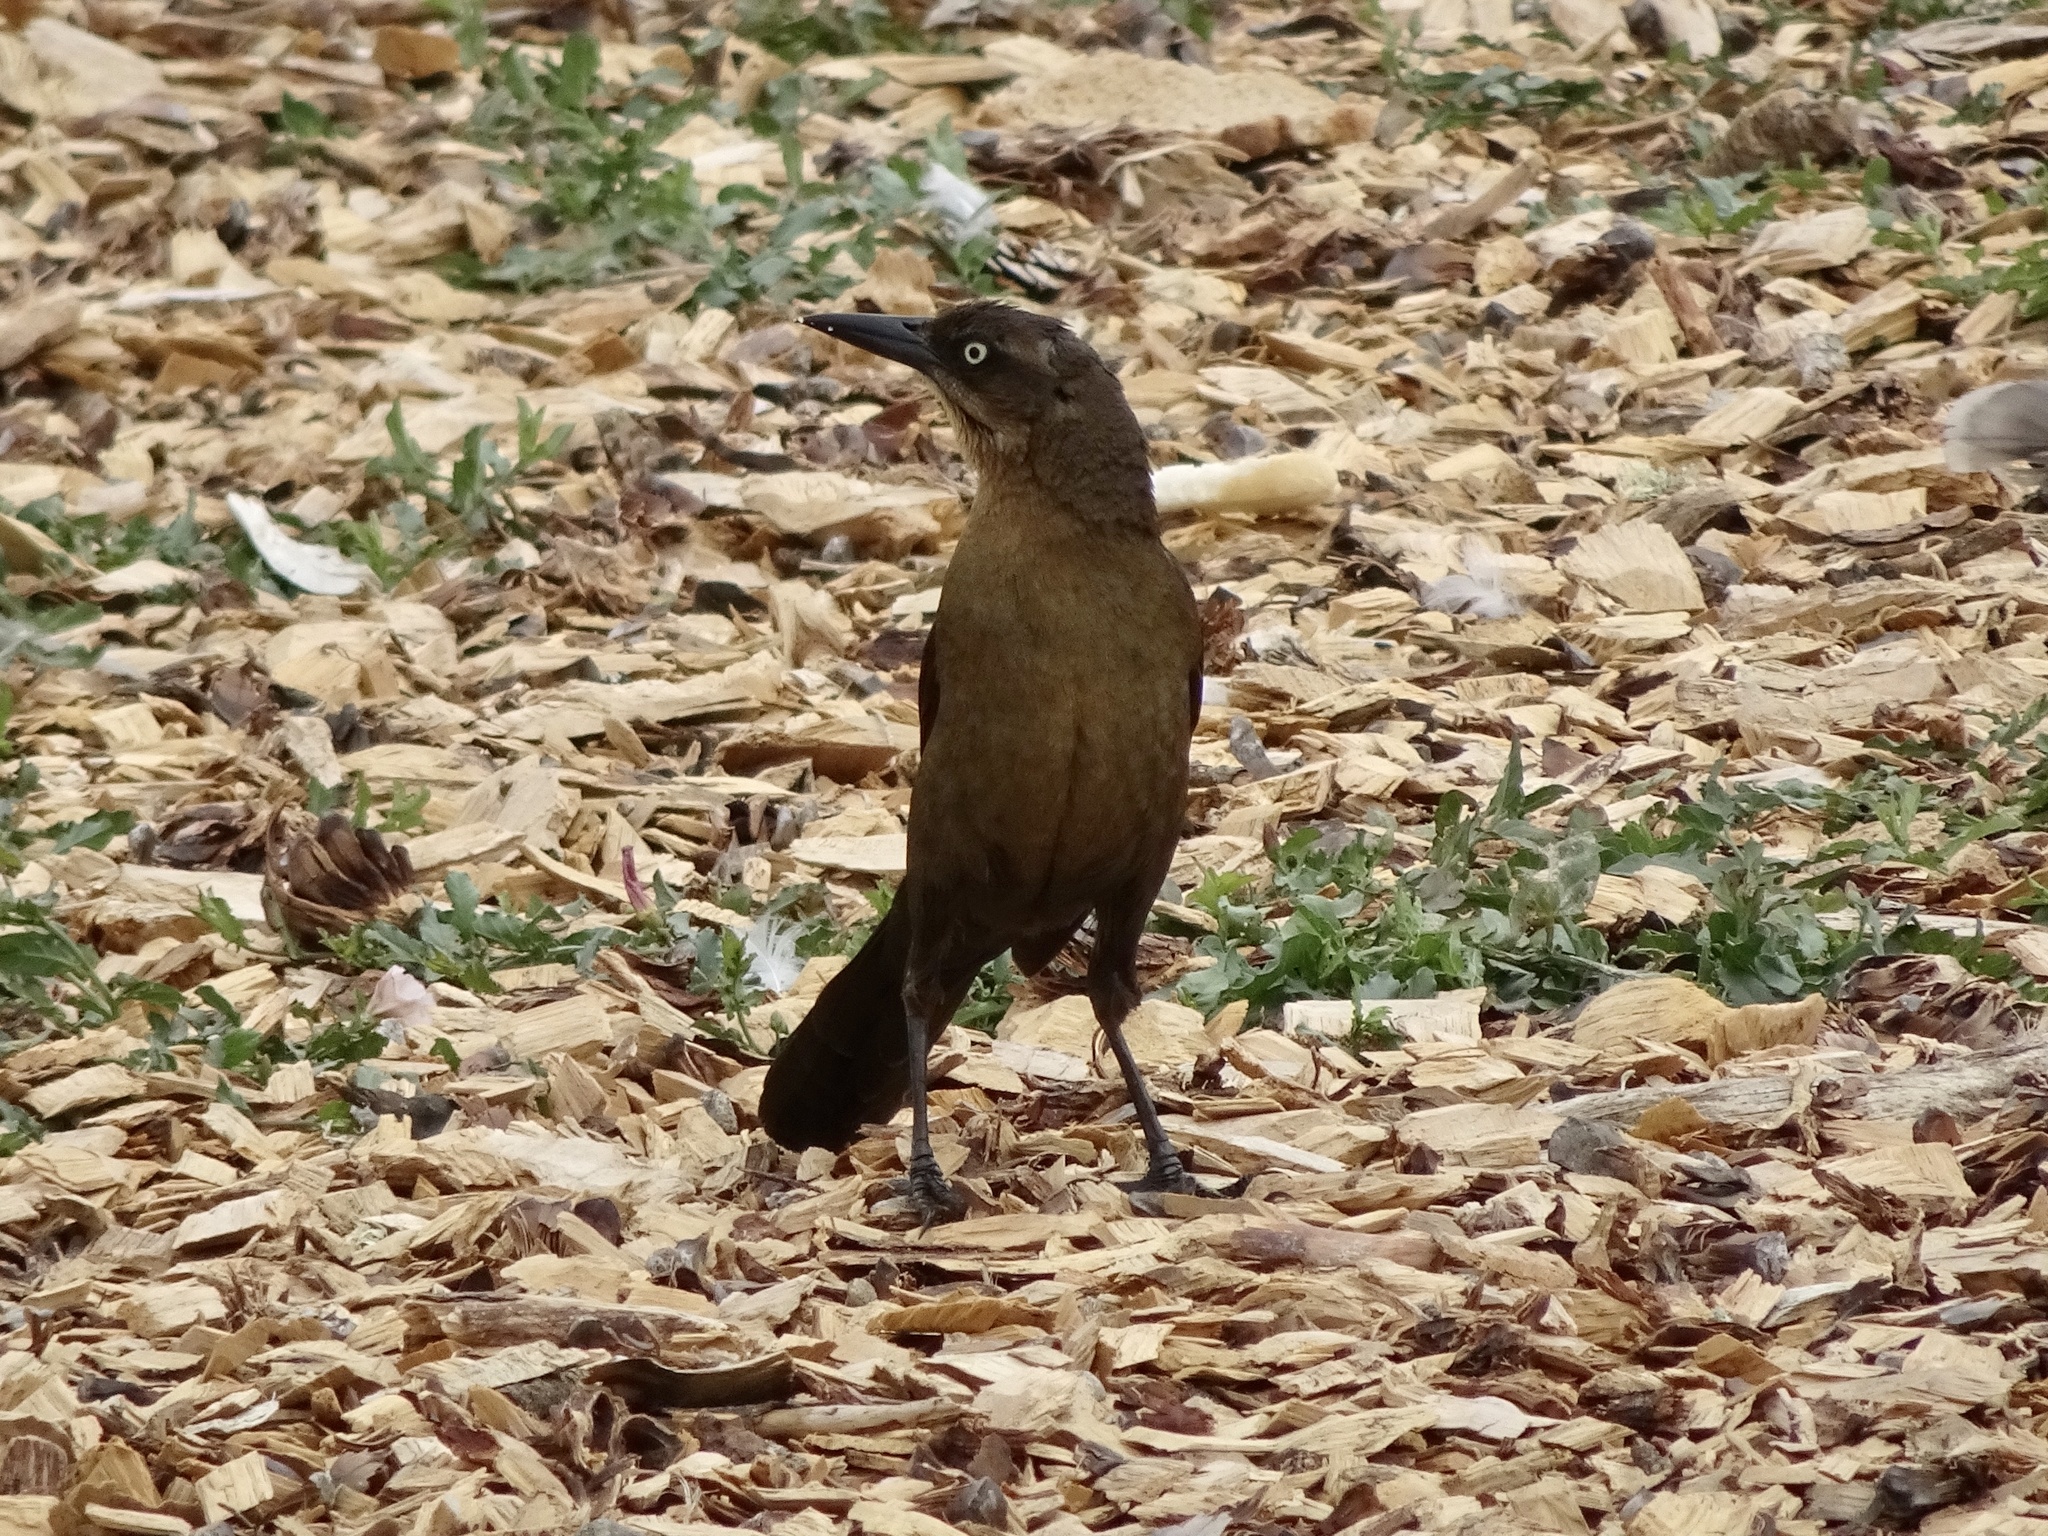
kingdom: Animalia
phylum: Chordata
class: Aves
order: Passeriformes
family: Icteridae
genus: Quiscalus
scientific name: Quiscalus mexicanus
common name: Great-tailed grackle
